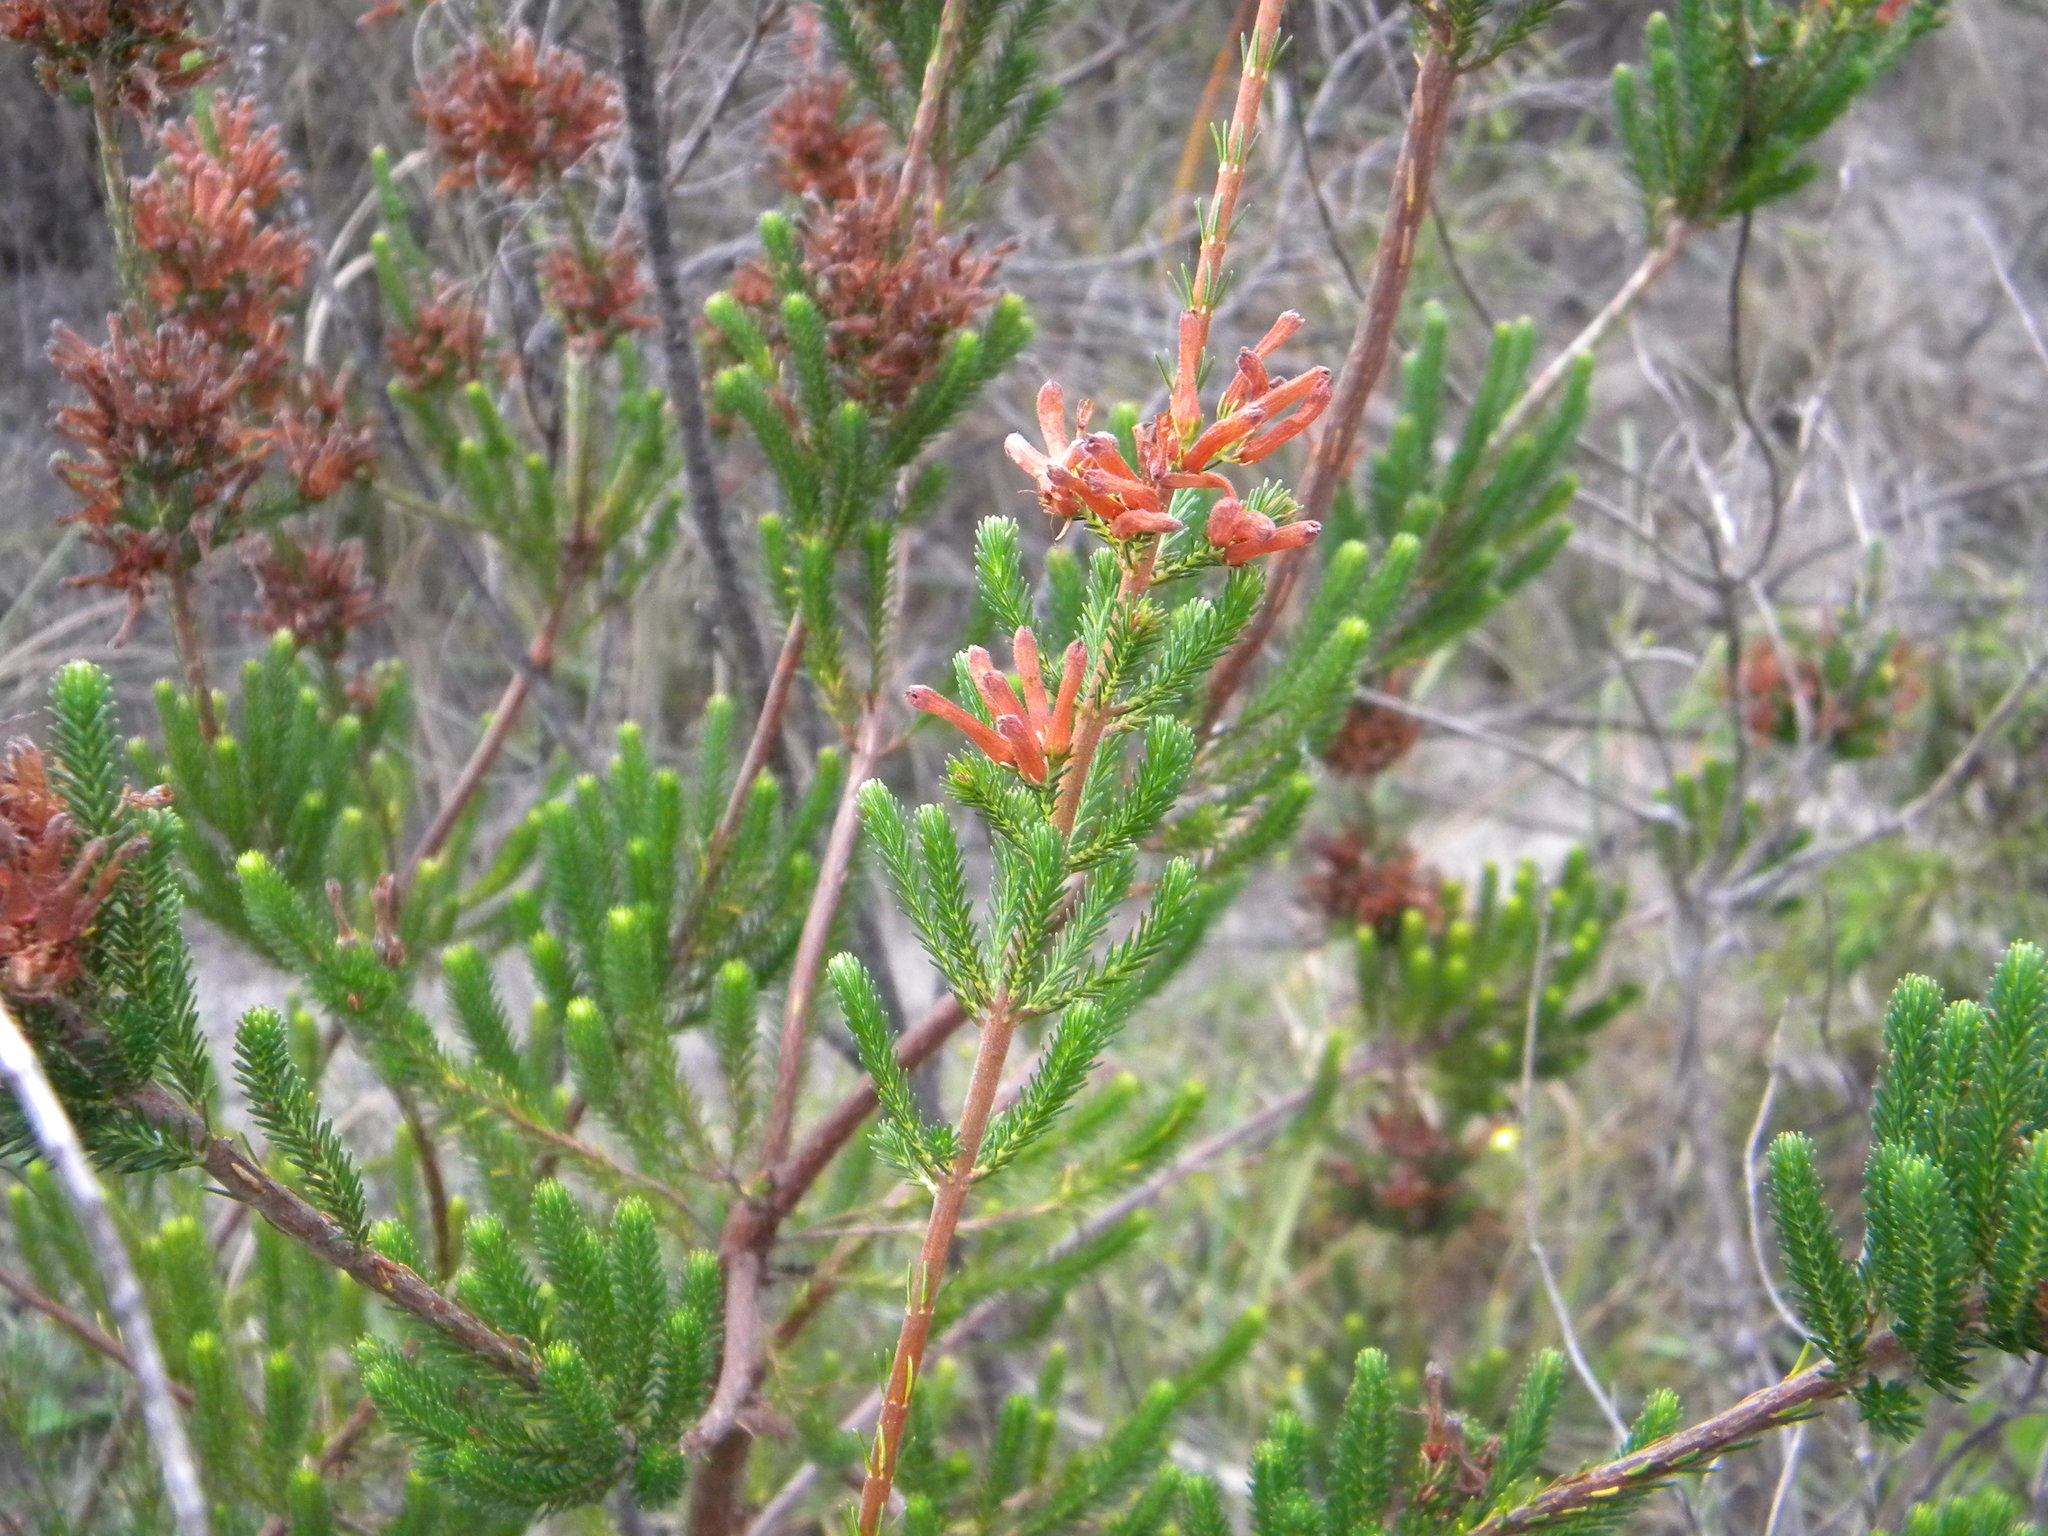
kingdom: Plantae
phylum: Tracheophyta
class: Magnoliopsida
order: Ericales
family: Ericaceae
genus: Erica
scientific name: Erica verticillata
